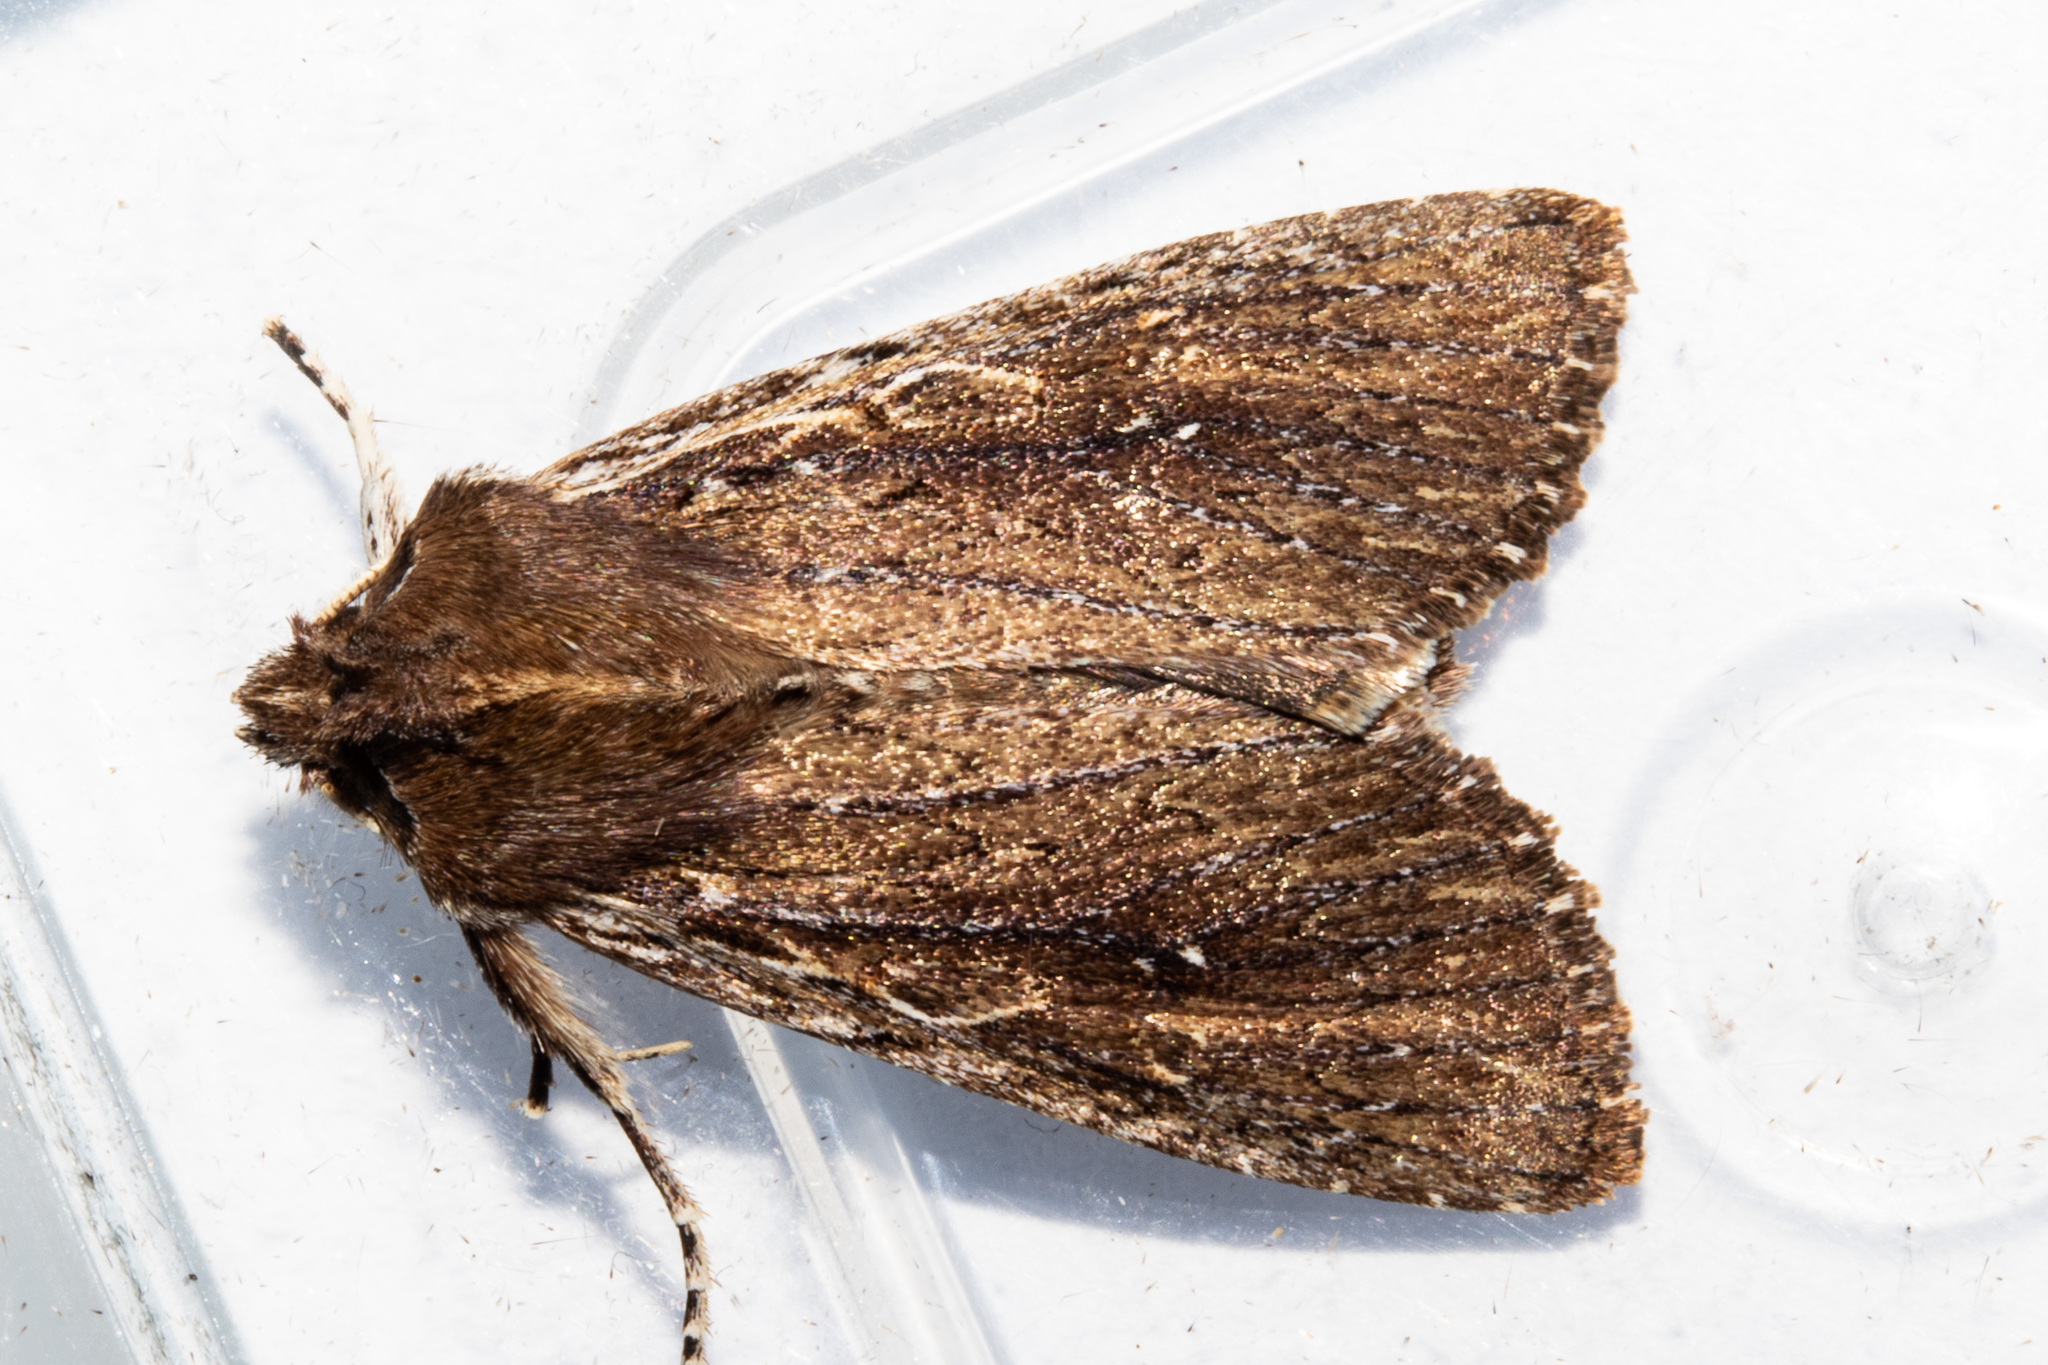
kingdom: Animalia
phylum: Arthropoda
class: Insecta
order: Lepidoptera
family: Noctuidae
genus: Ichneutica
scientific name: Ichneutica
